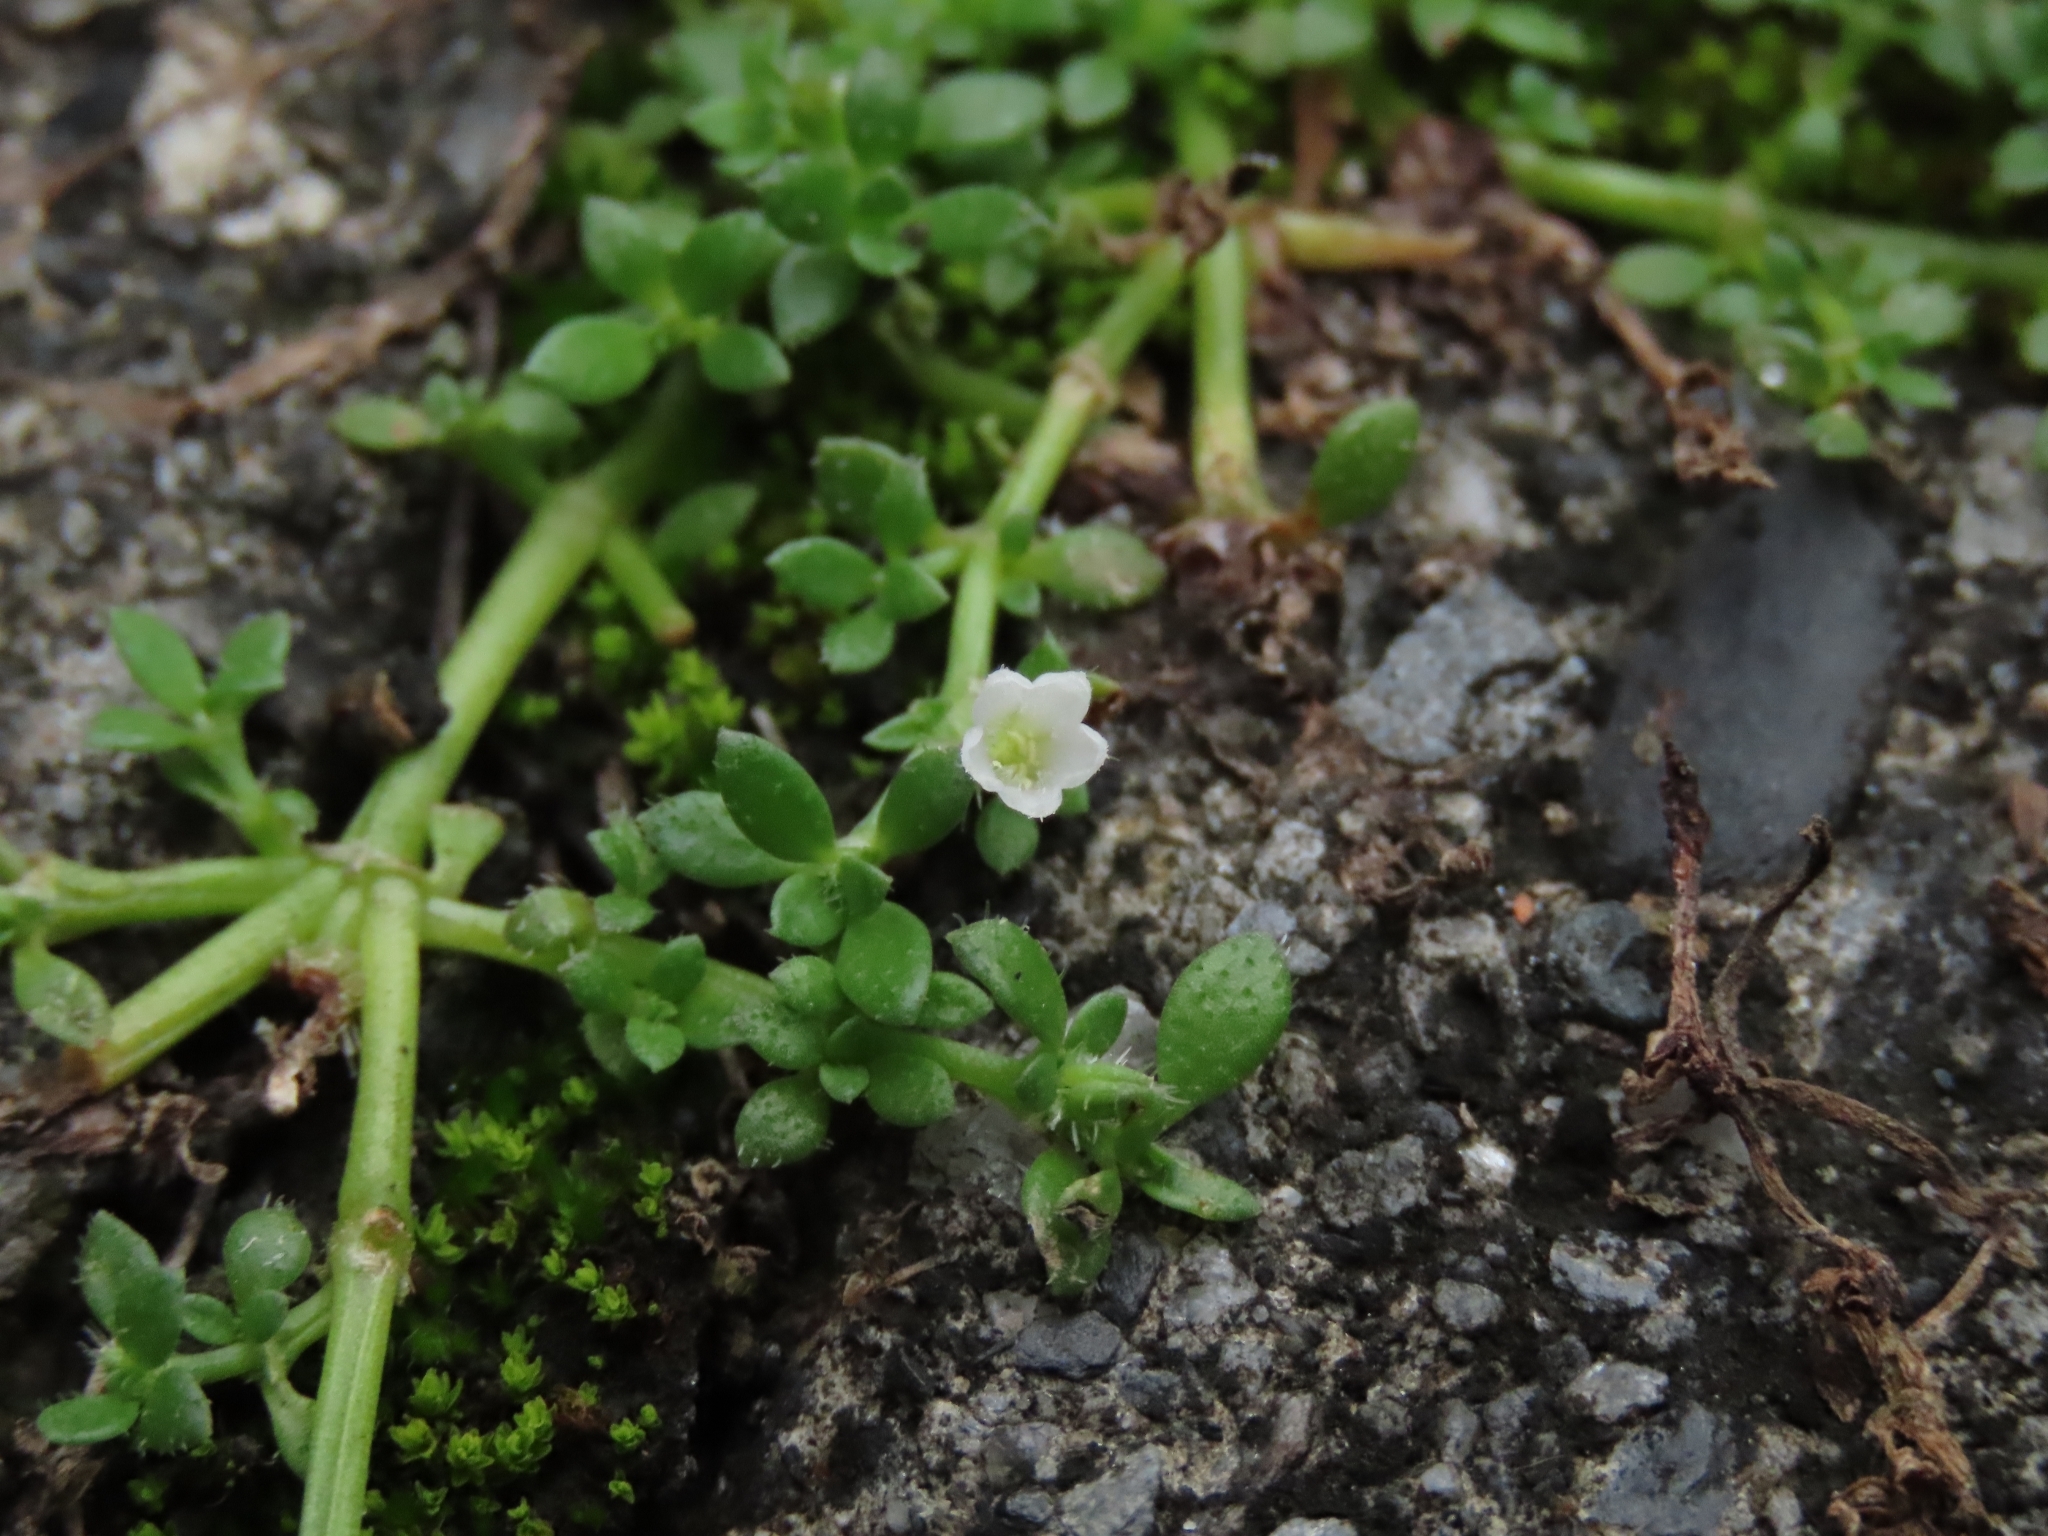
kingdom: Plantae
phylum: Tracheophyta
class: Magnoliopsida
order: Gentianales
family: Rubiaceae
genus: Dentella
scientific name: Dentella repens
